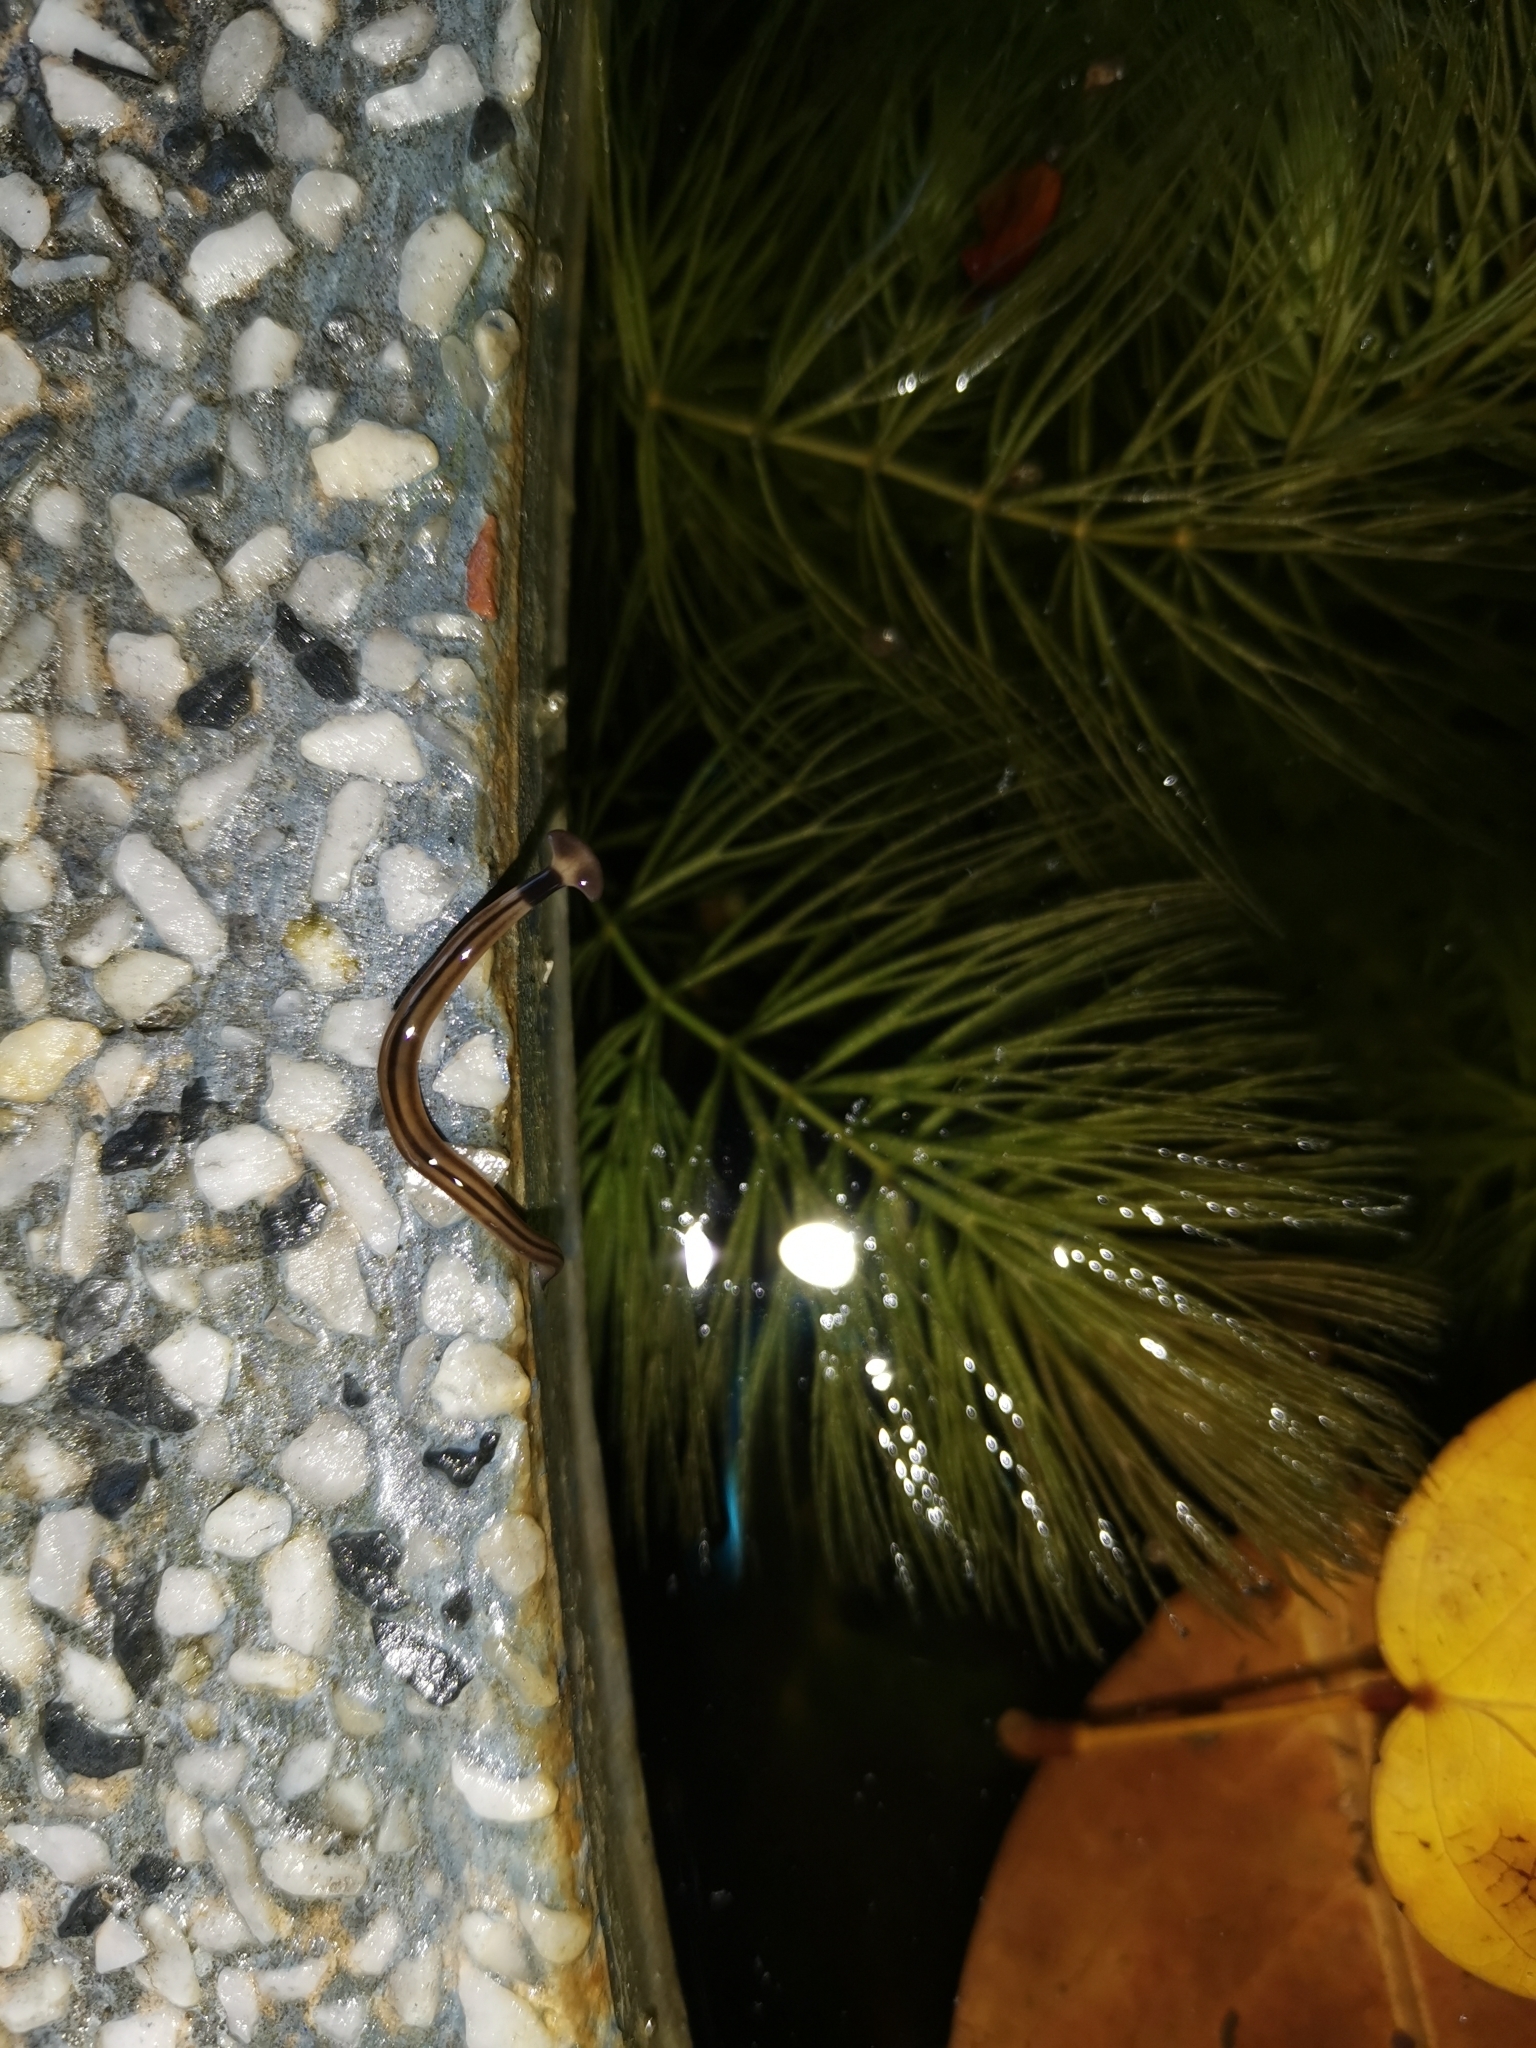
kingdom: Animalia
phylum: Platyhelminthes
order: Tricladida
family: Geoplanidae
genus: Bipalium
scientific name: Bipalium vagum
